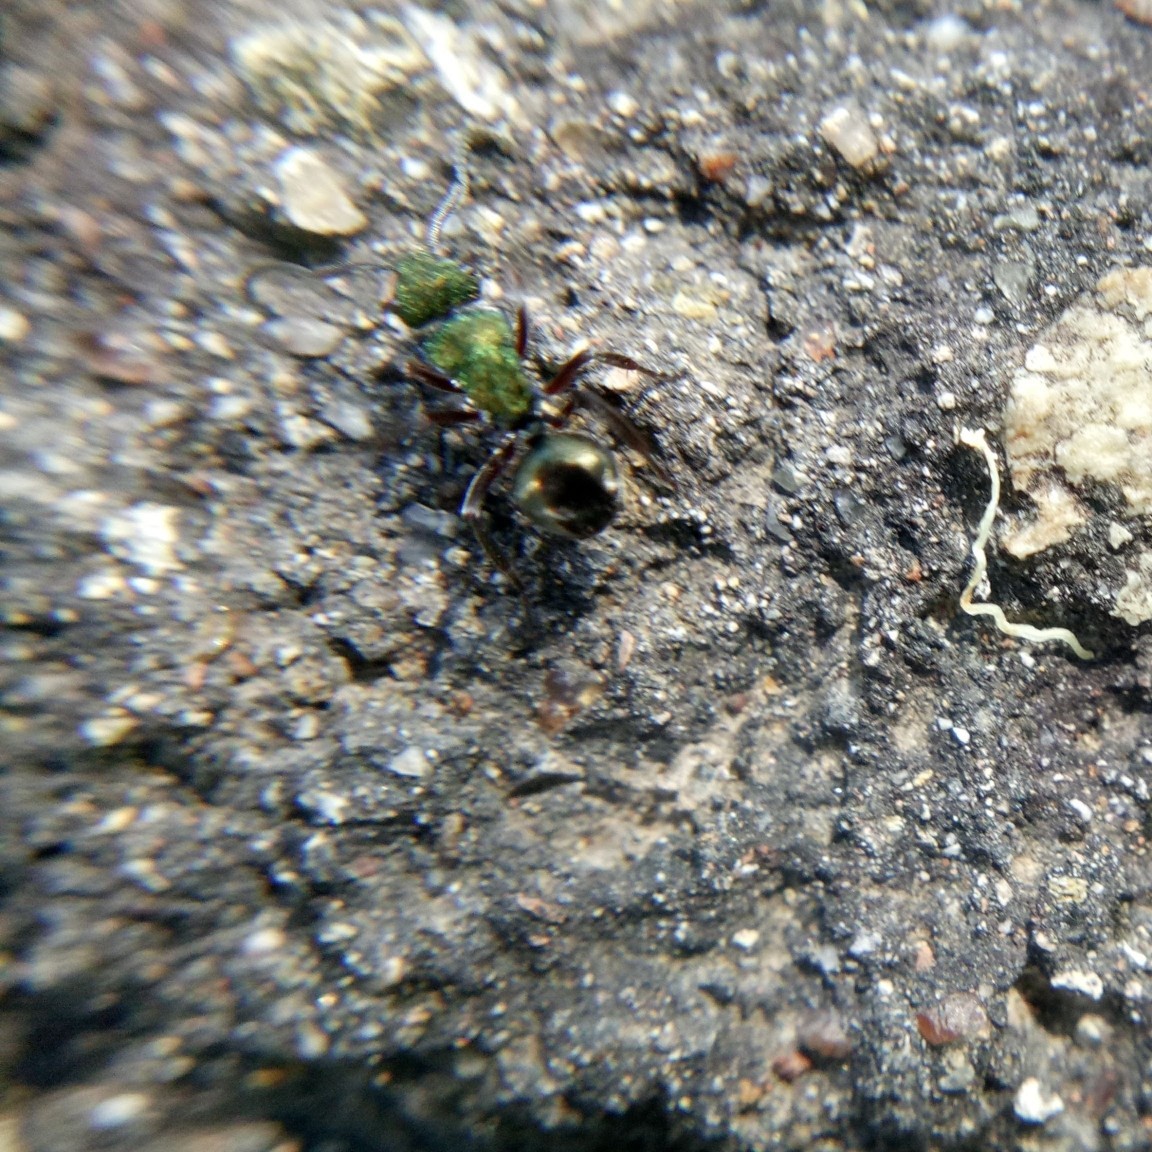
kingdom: Animalia
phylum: Arthropoda
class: Insecta
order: Hymenoptera
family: Formicidae
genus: Polyrhachis
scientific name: Polyrhachis hookeri
